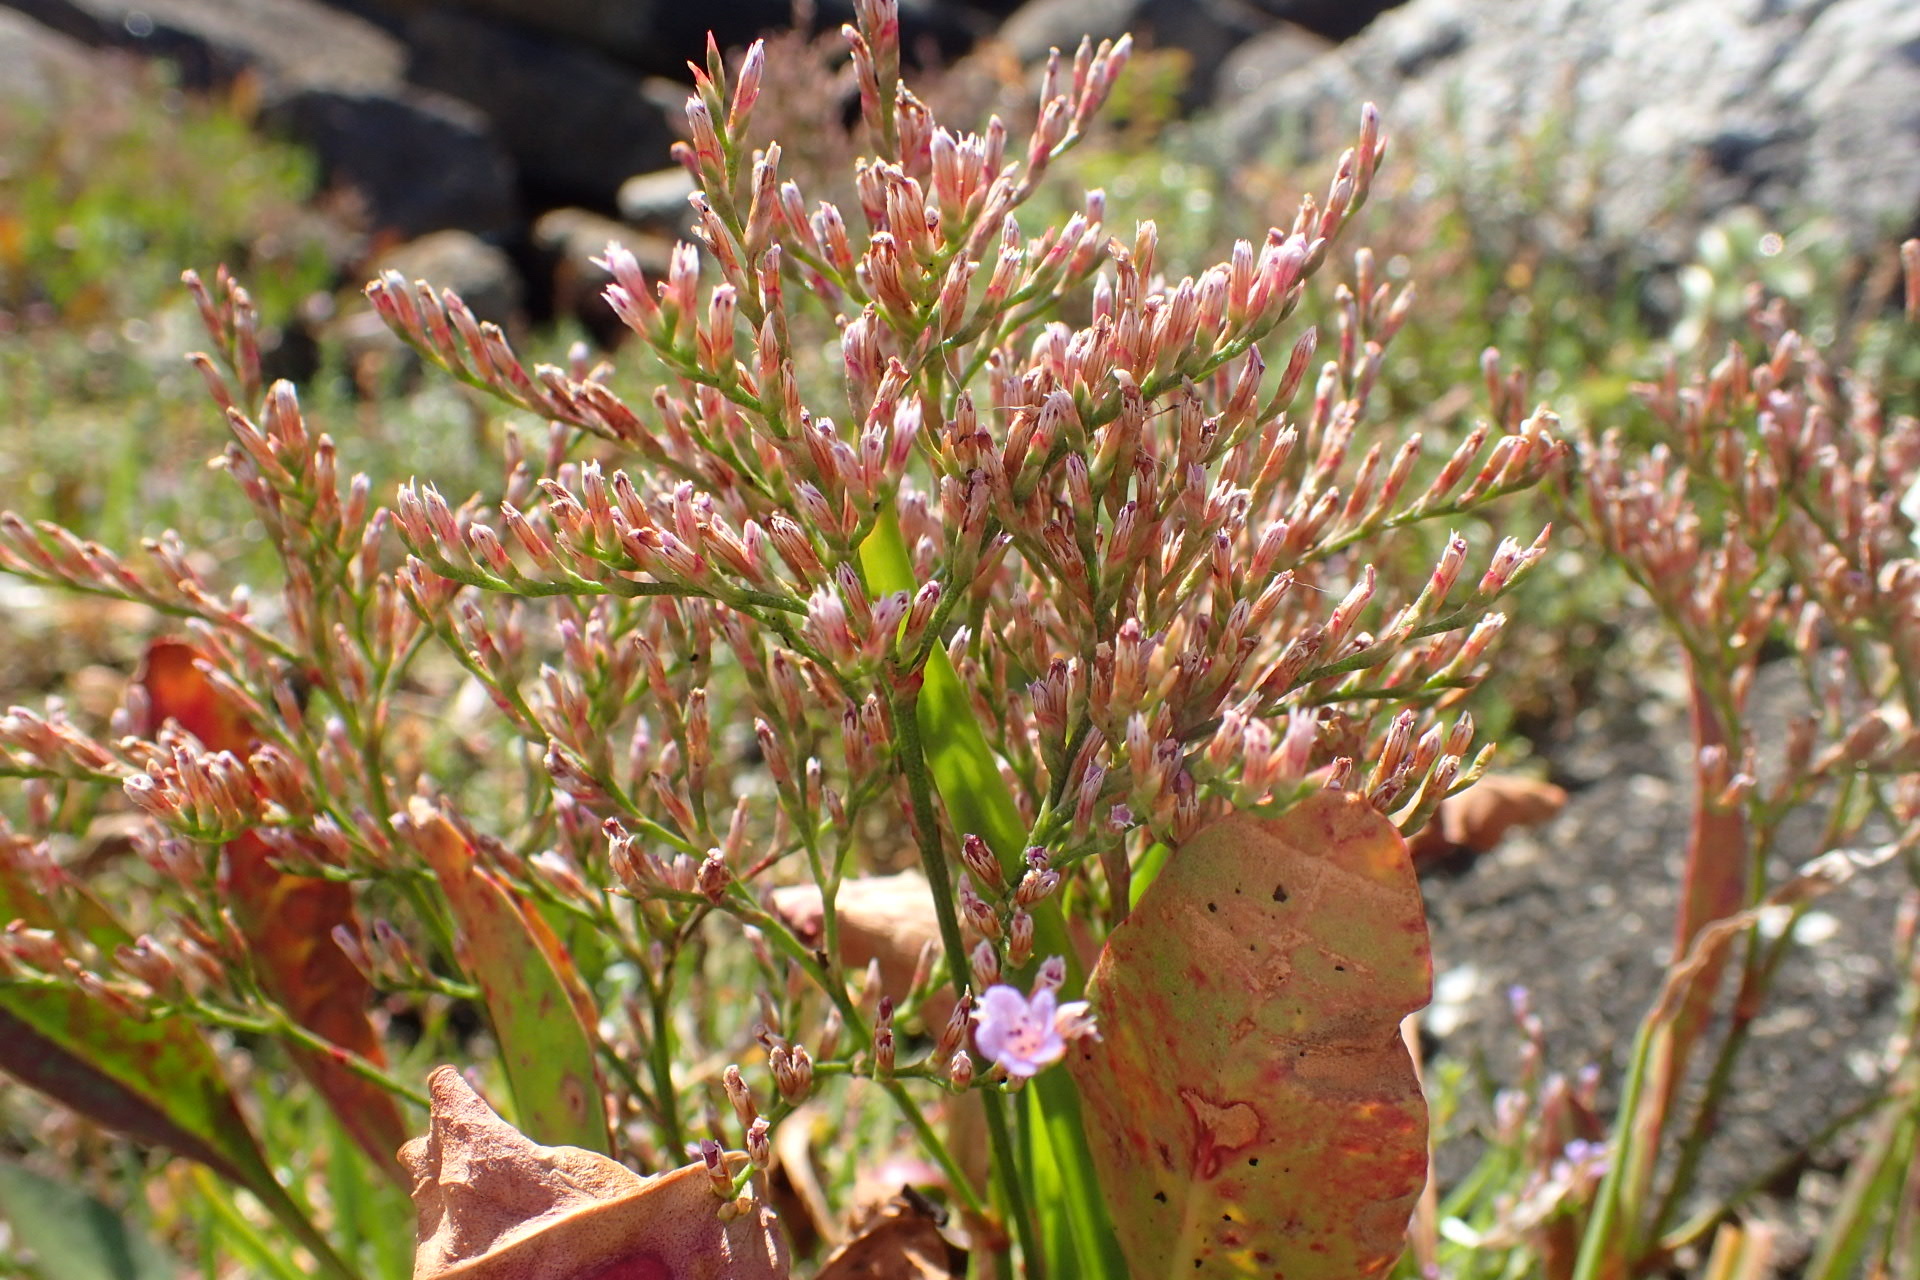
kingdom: Plantae
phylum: Tracheophyta
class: Magnoliopsida
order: Caryophyllales
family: Plumbaginaceae
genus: Limonium
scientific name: Limonium carolinianum
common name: Carolina sea lavender
